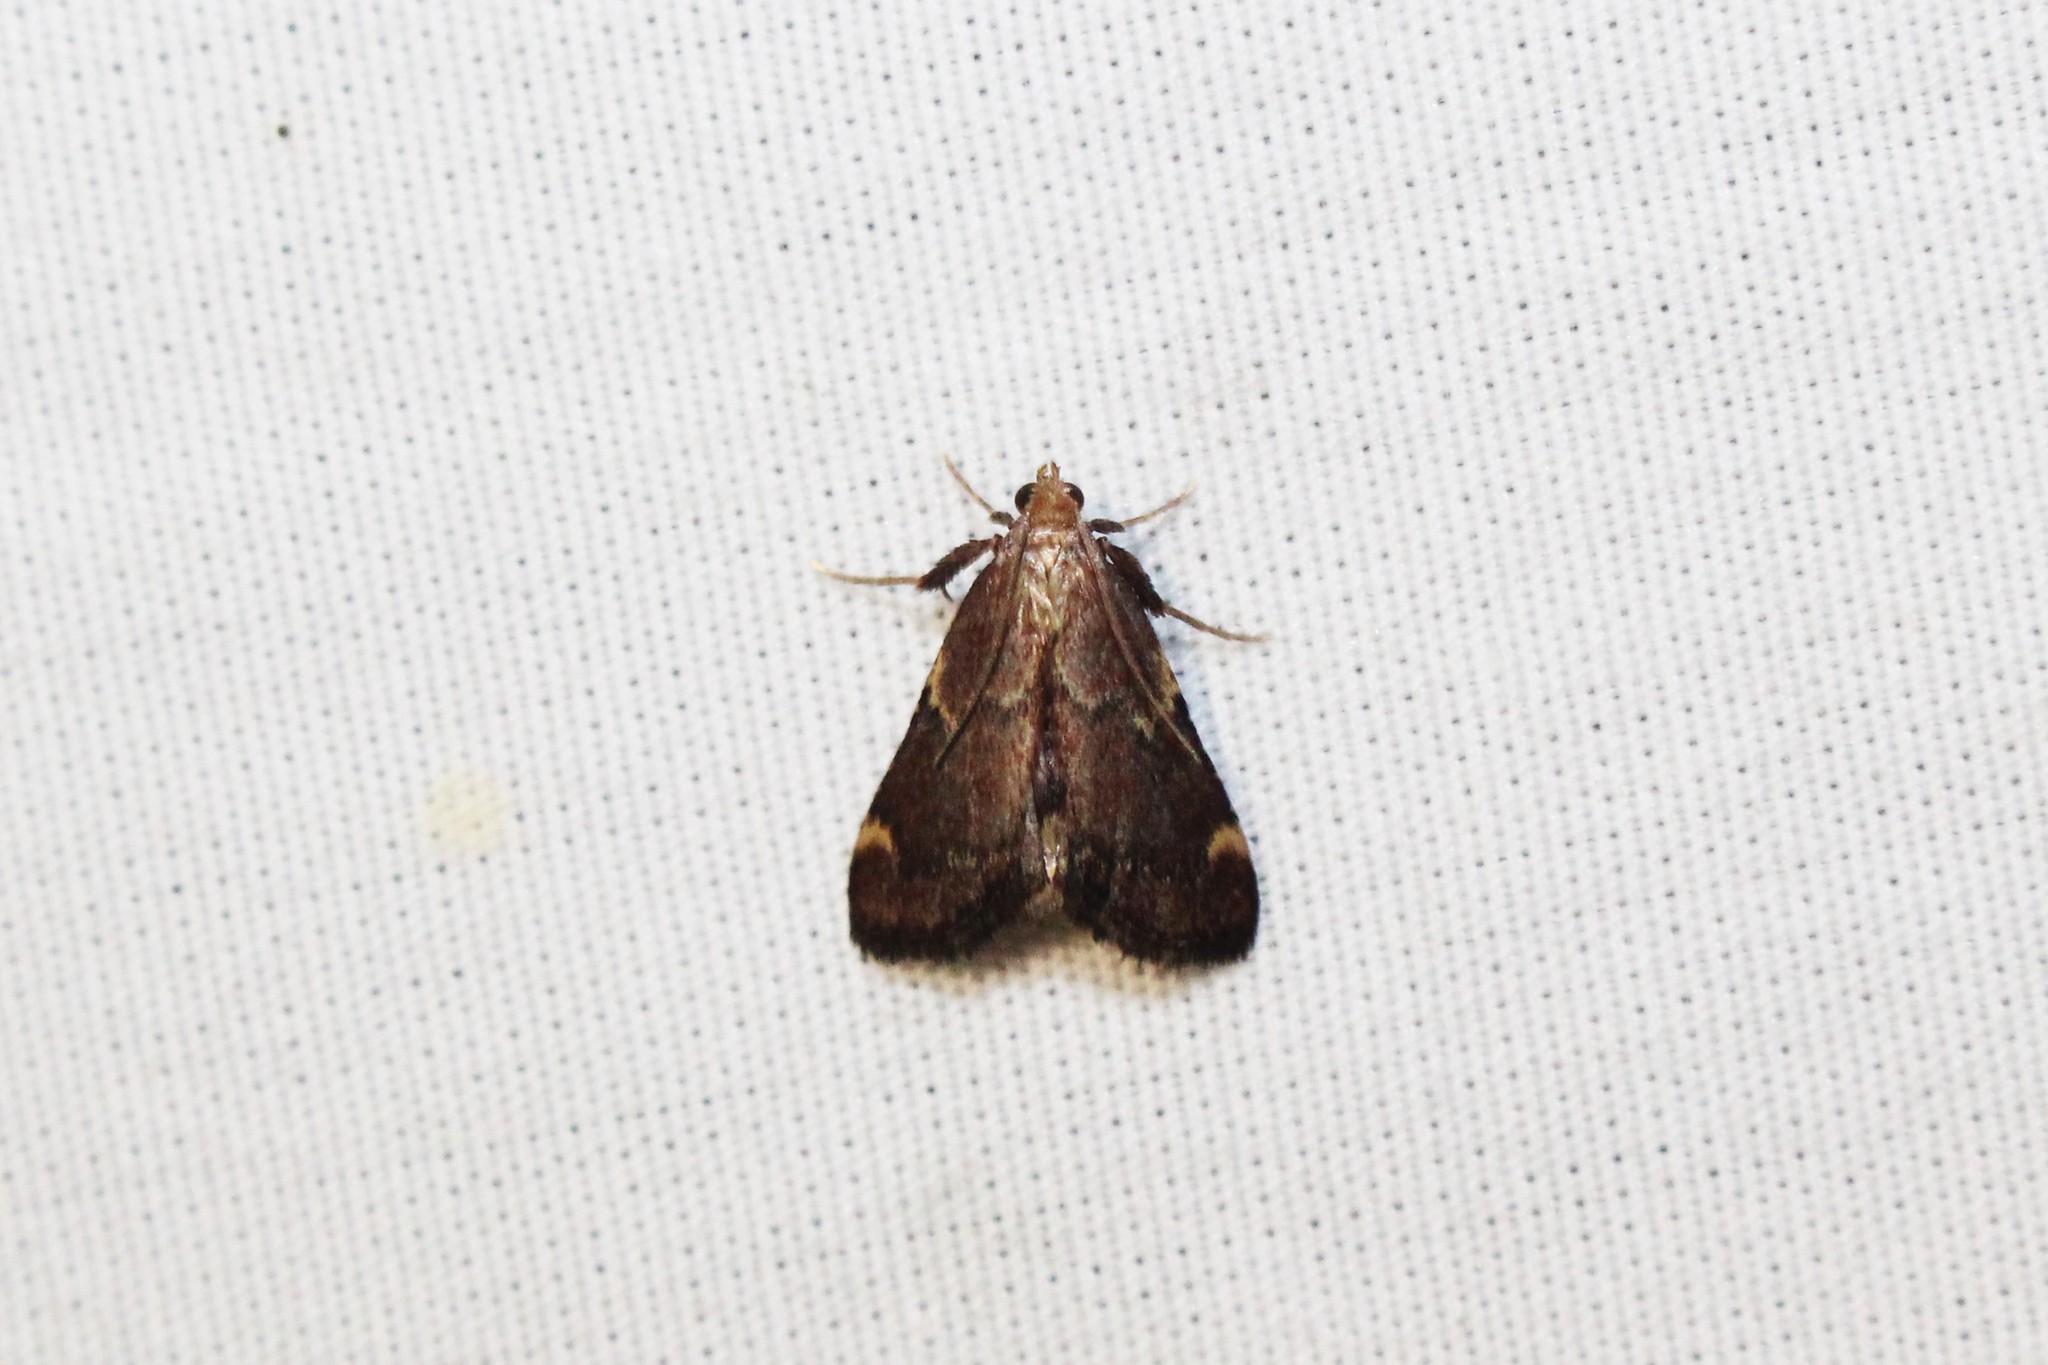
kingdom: Animalia
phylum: Arthropoda
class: Insecta
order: Lepidoptera
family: Pyralidae
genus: Hypsopygia
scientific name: Hypsopygia intermedialis
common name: Red-shawled moth
